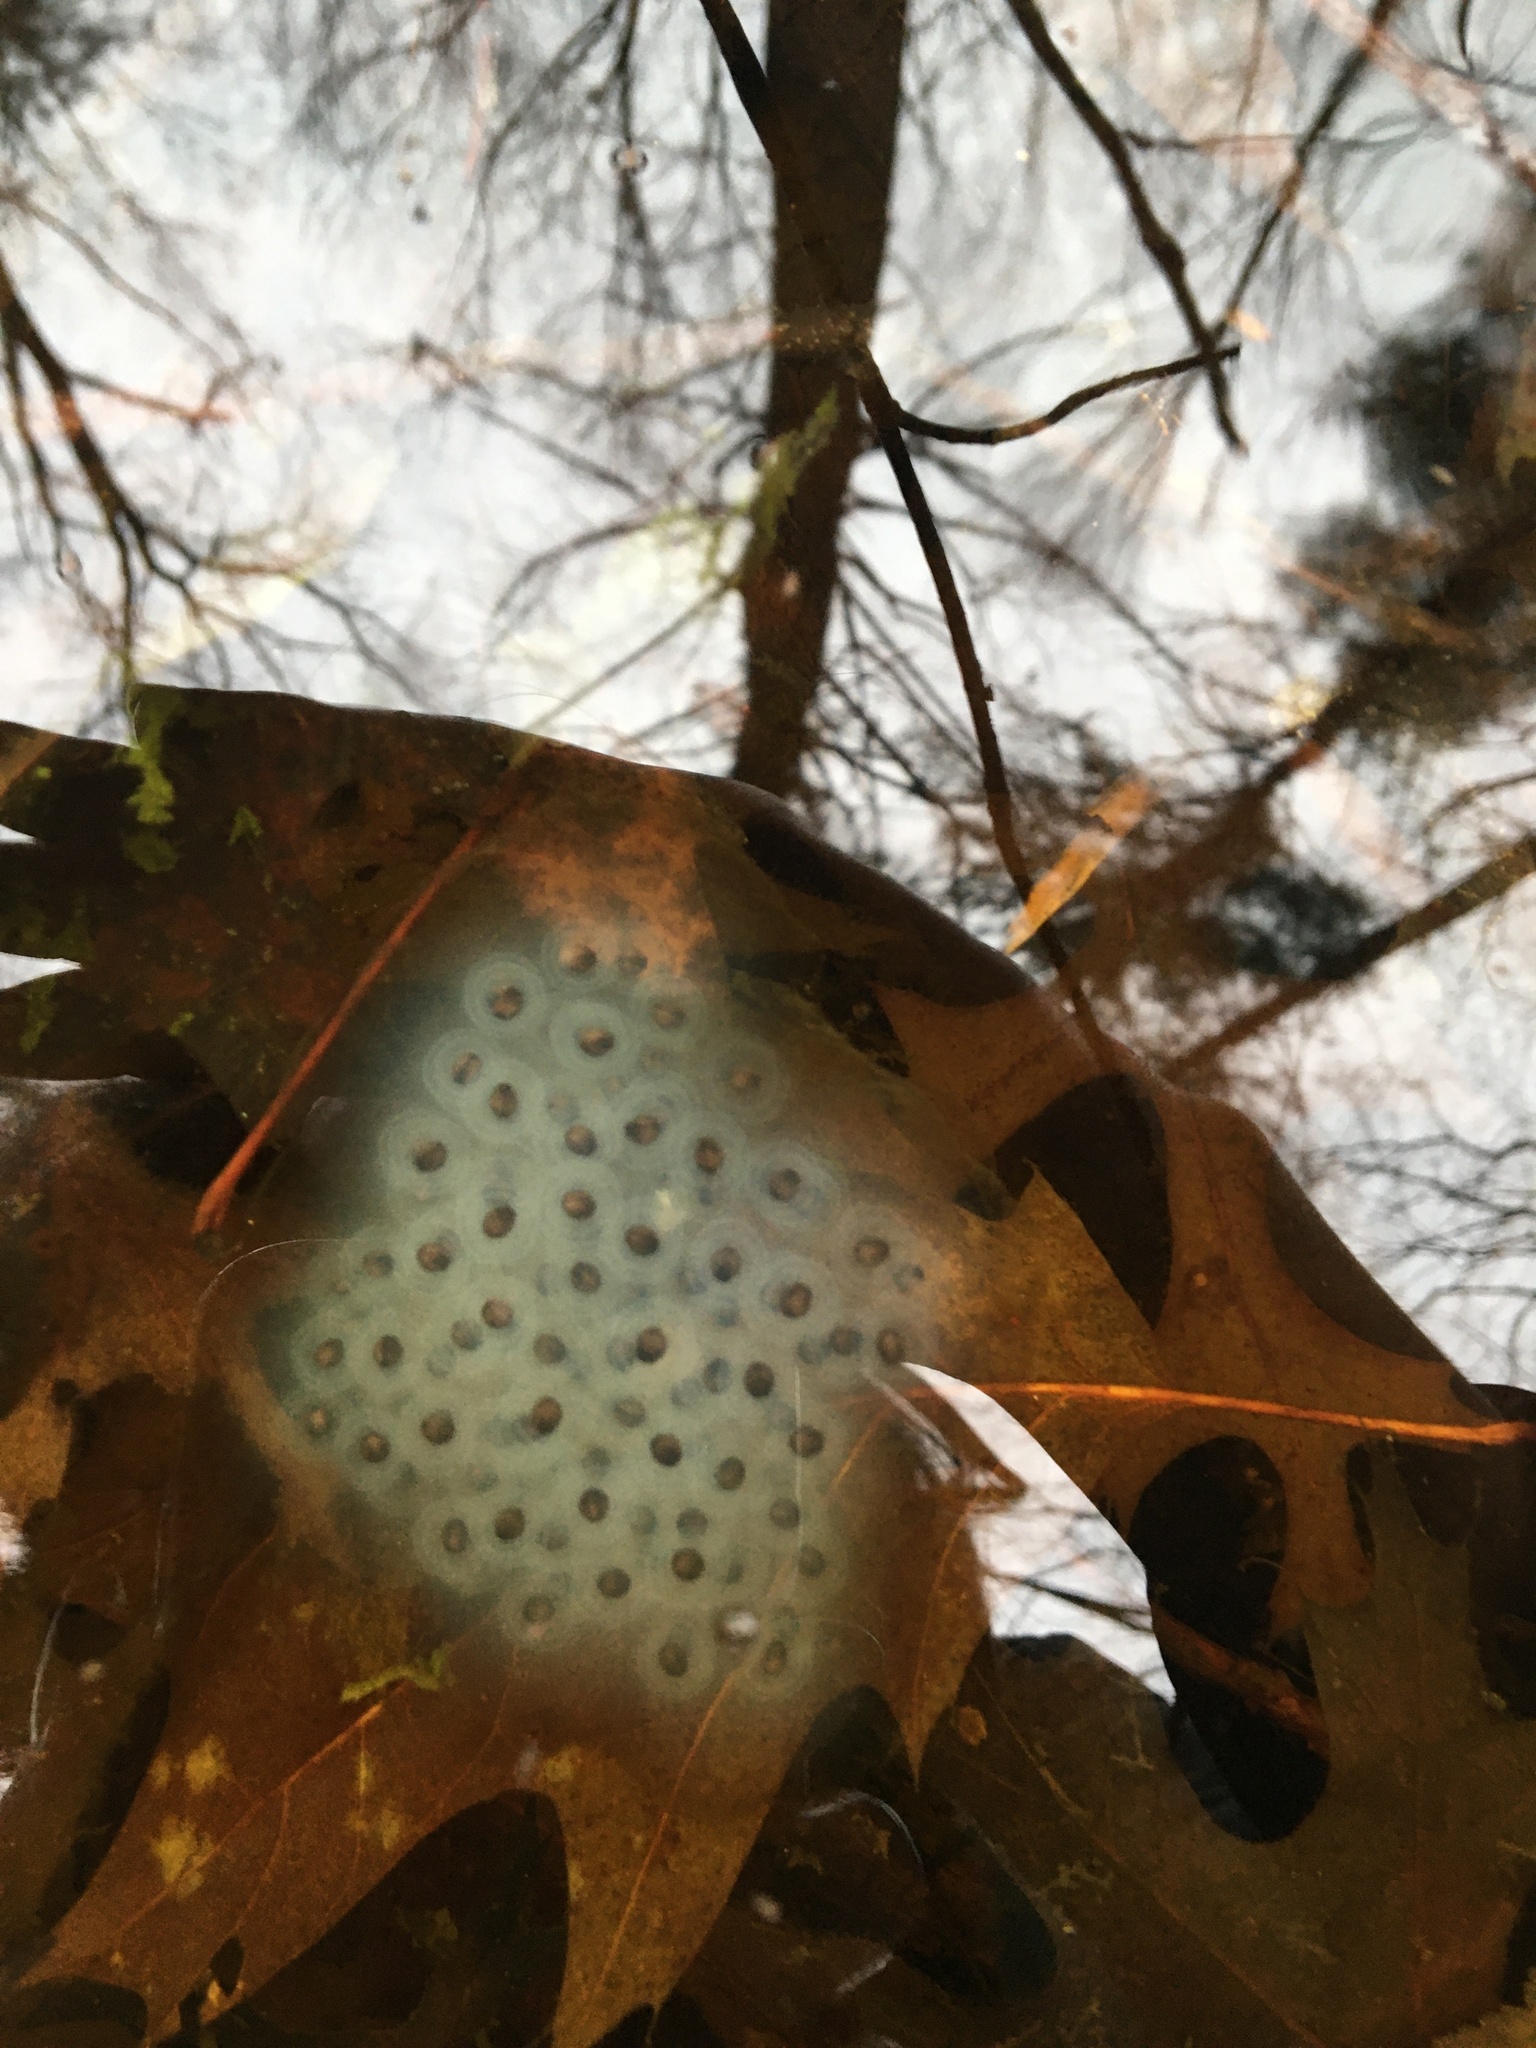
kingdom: Animalia
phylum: Chordata
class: Amphibia
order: Caudata
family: Ambystomatidae
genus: Ambystoma
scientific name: Ambystoma maculatum
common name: Spotted salamander
